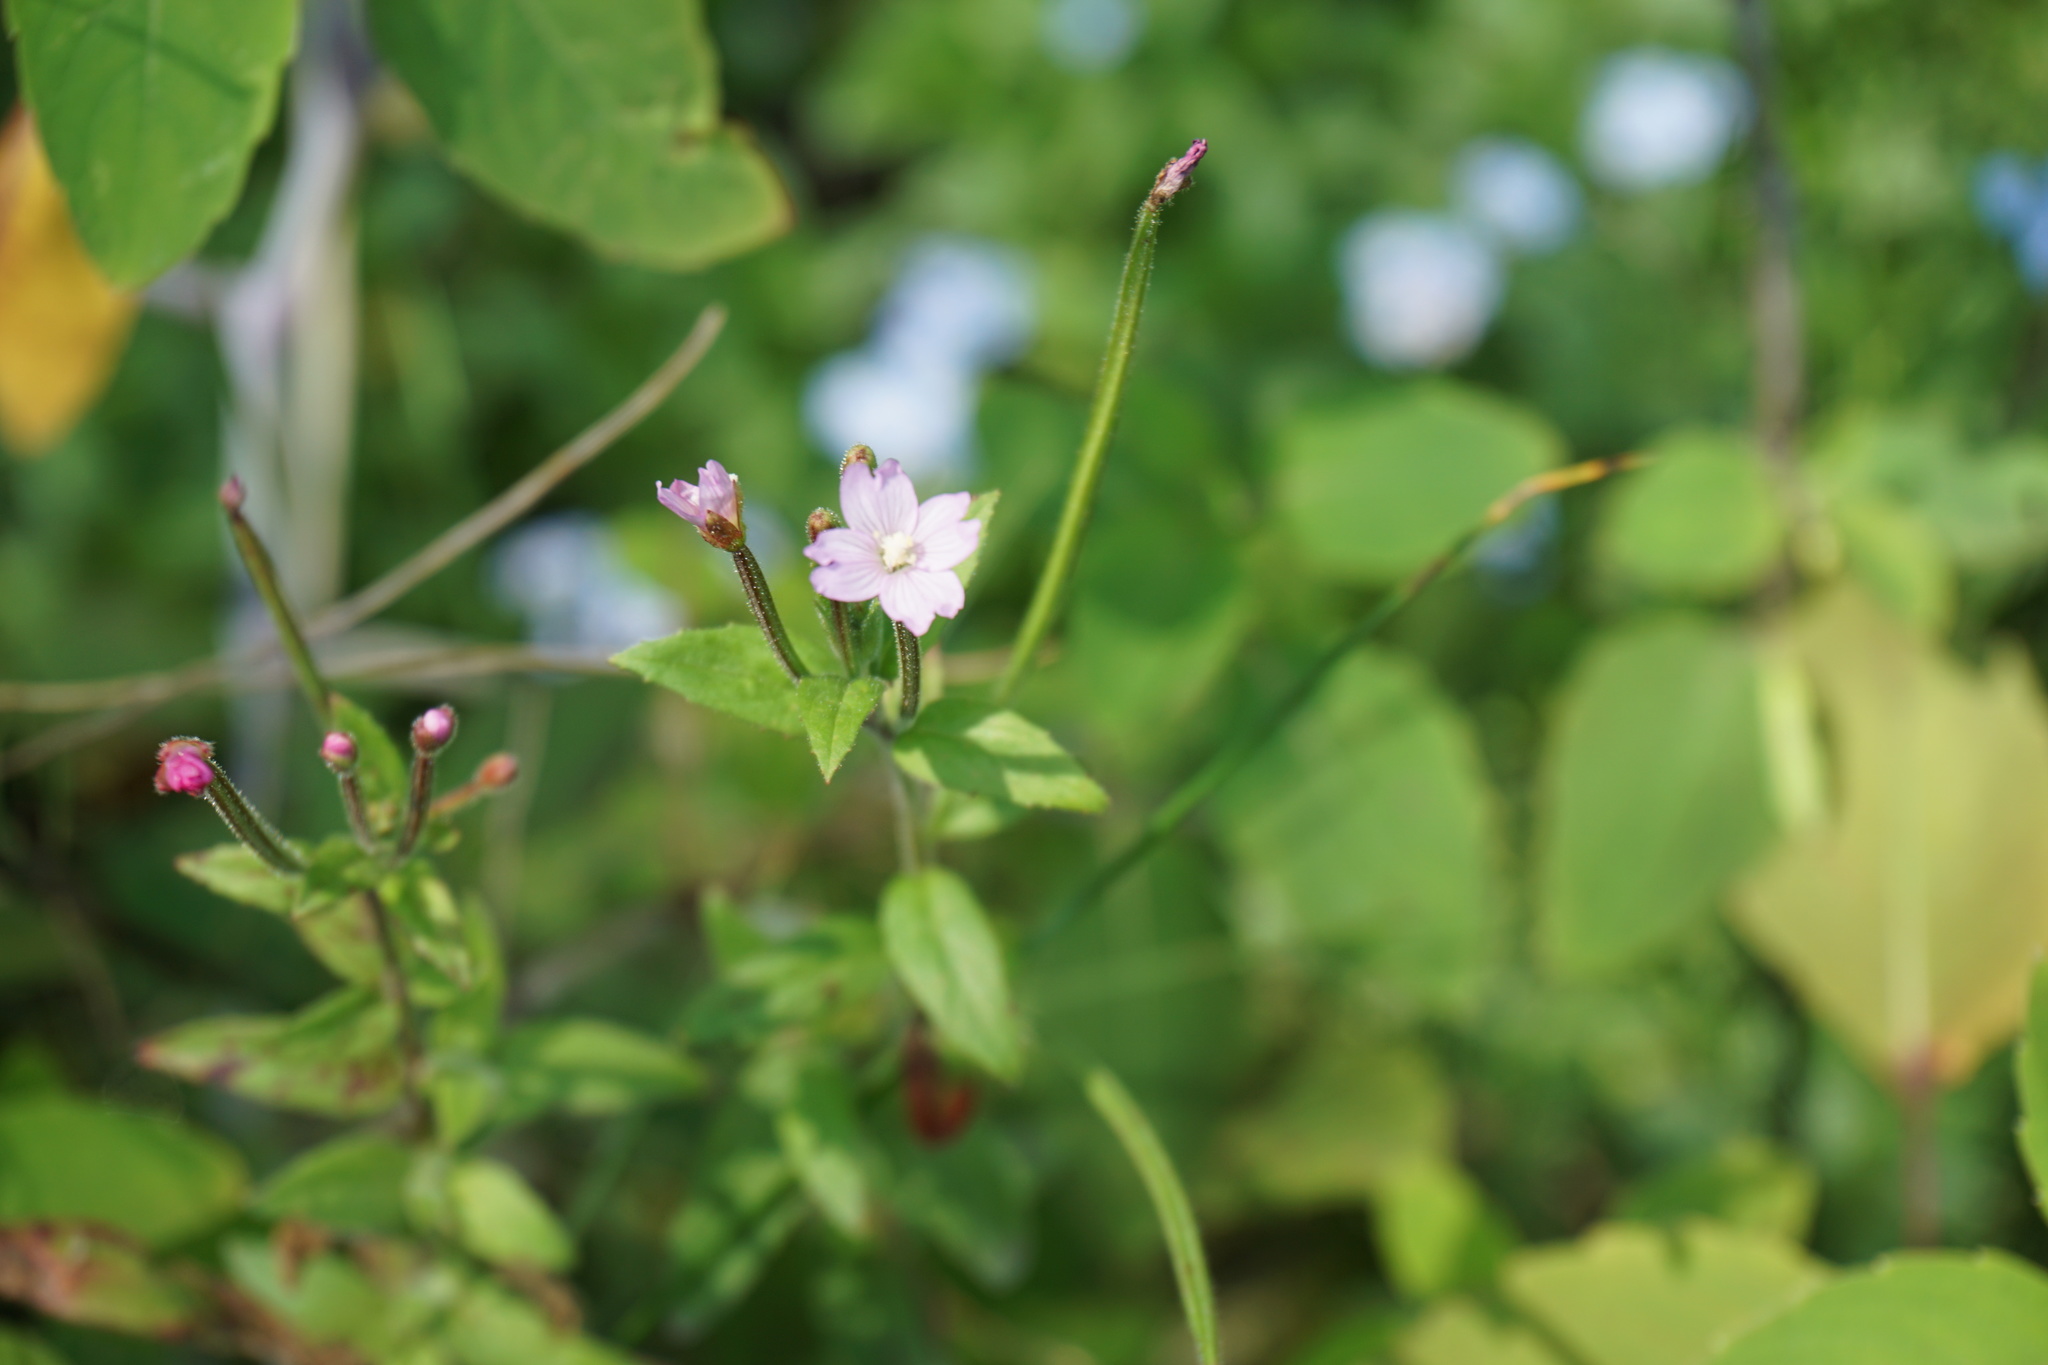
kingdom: Plantae
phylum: Tracheophyta
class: Magnoliopsida
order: Myrtales
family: Onagraceae
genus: Epilobium
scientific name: Epilobium ciliatum
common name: American willowherb
